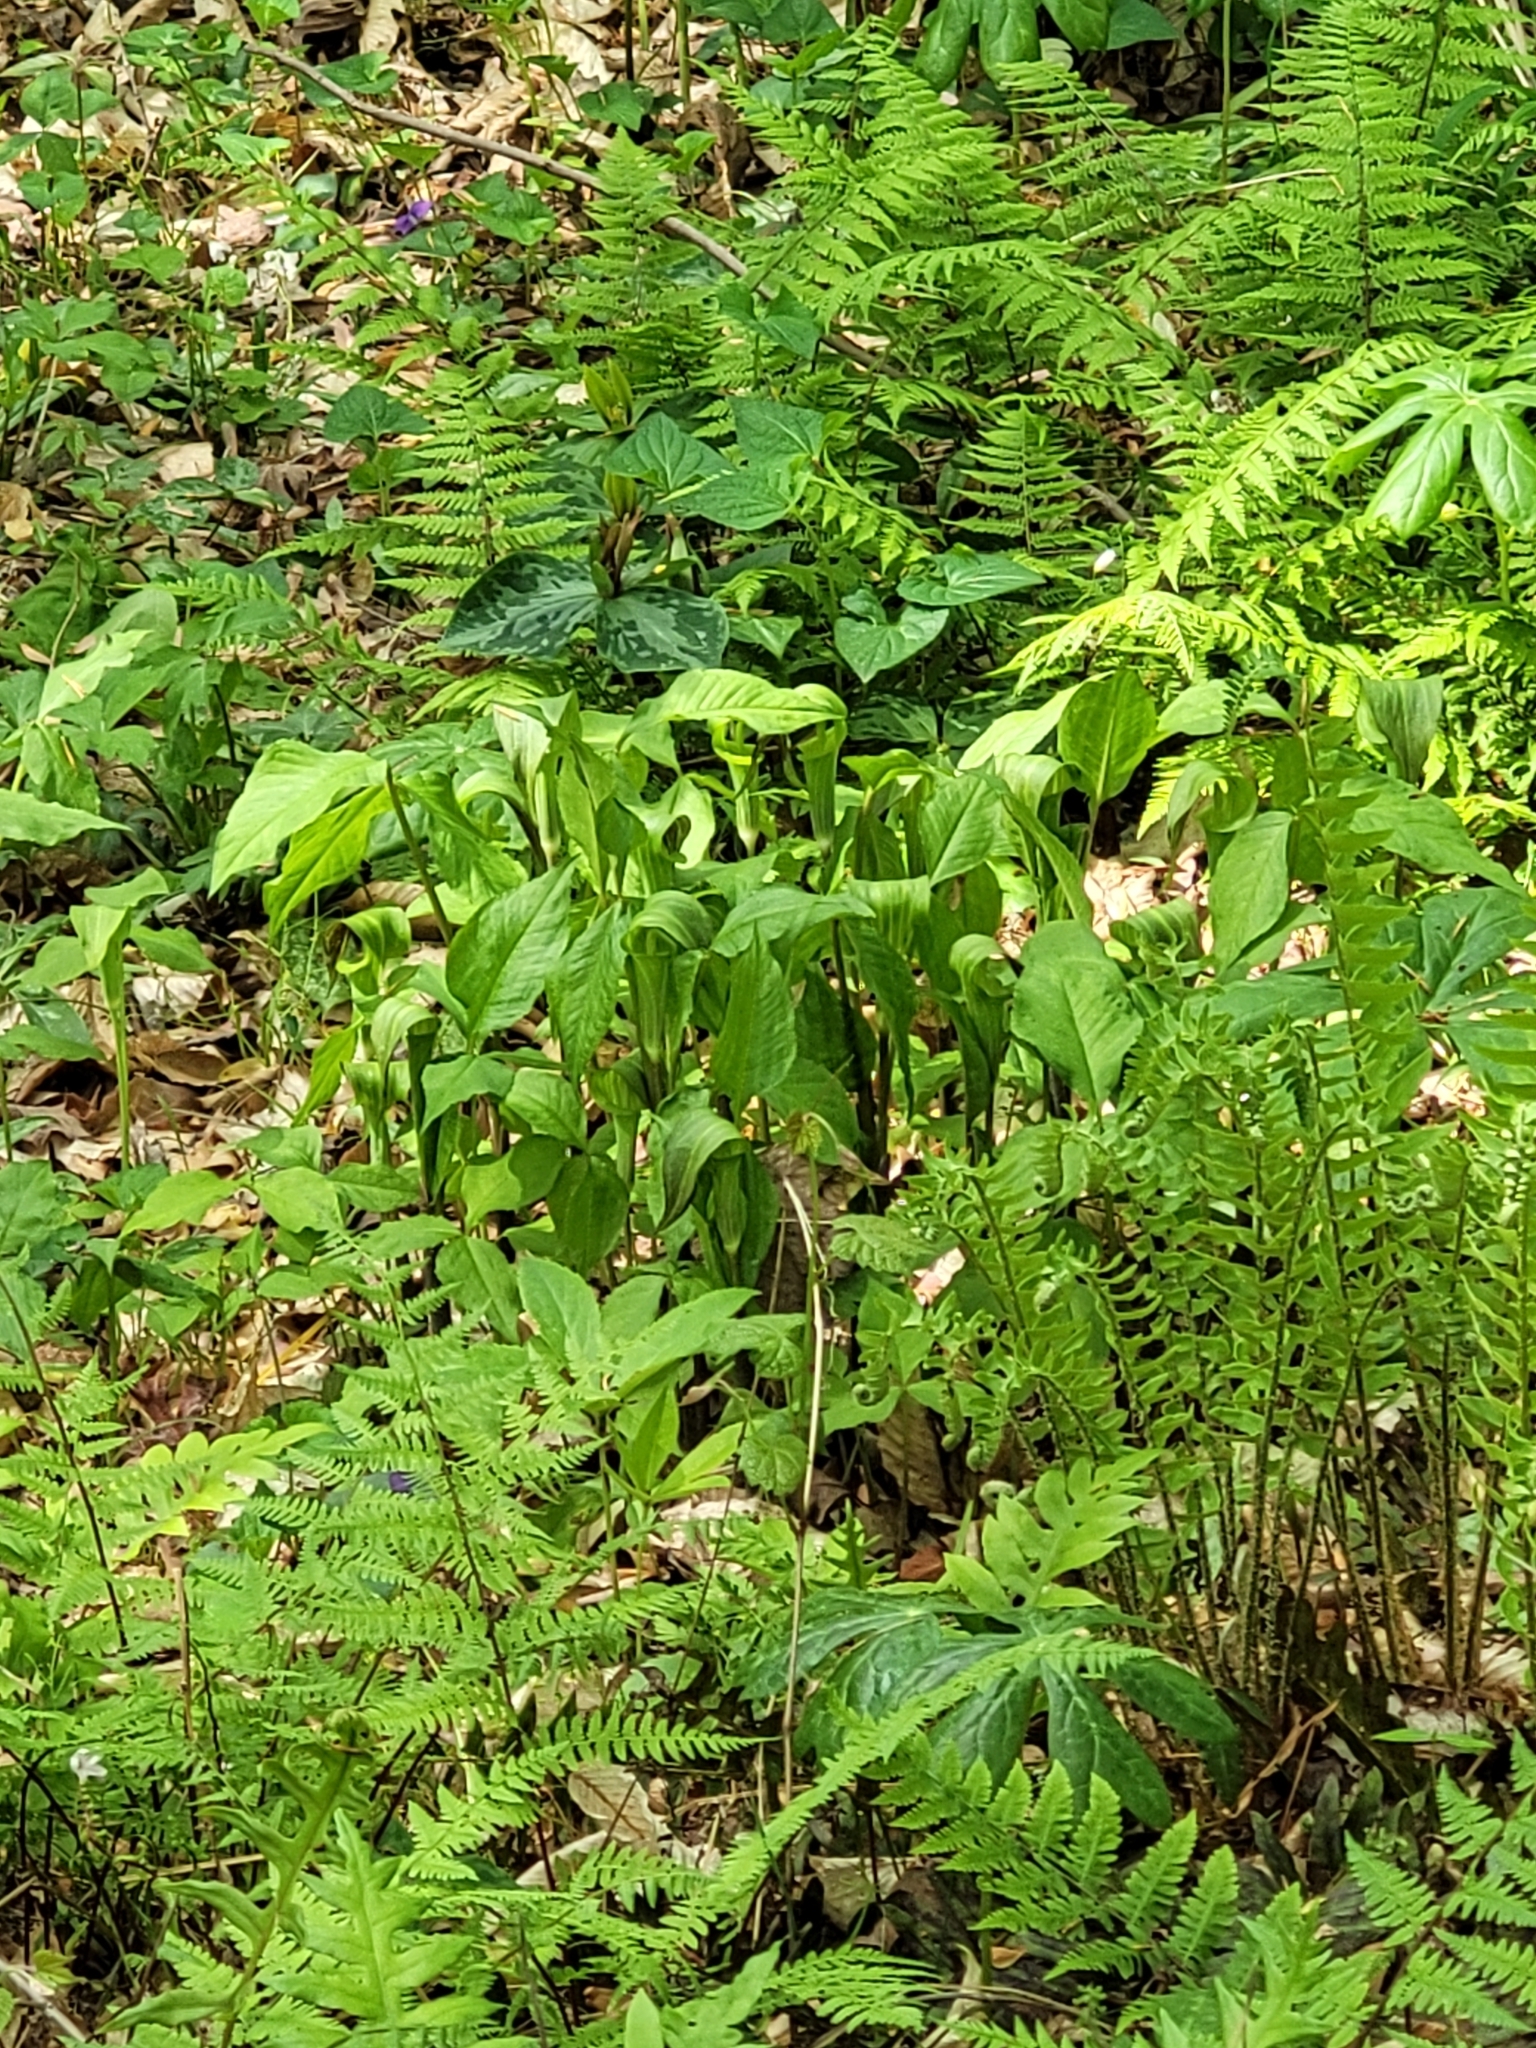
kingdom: Plantae
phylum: Tracheophyta
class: Liliopsida
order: Alismatales
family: Araceae
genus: Arisaema
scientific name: Arisaema triphyllum
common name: Jack-in-the-pulpit
